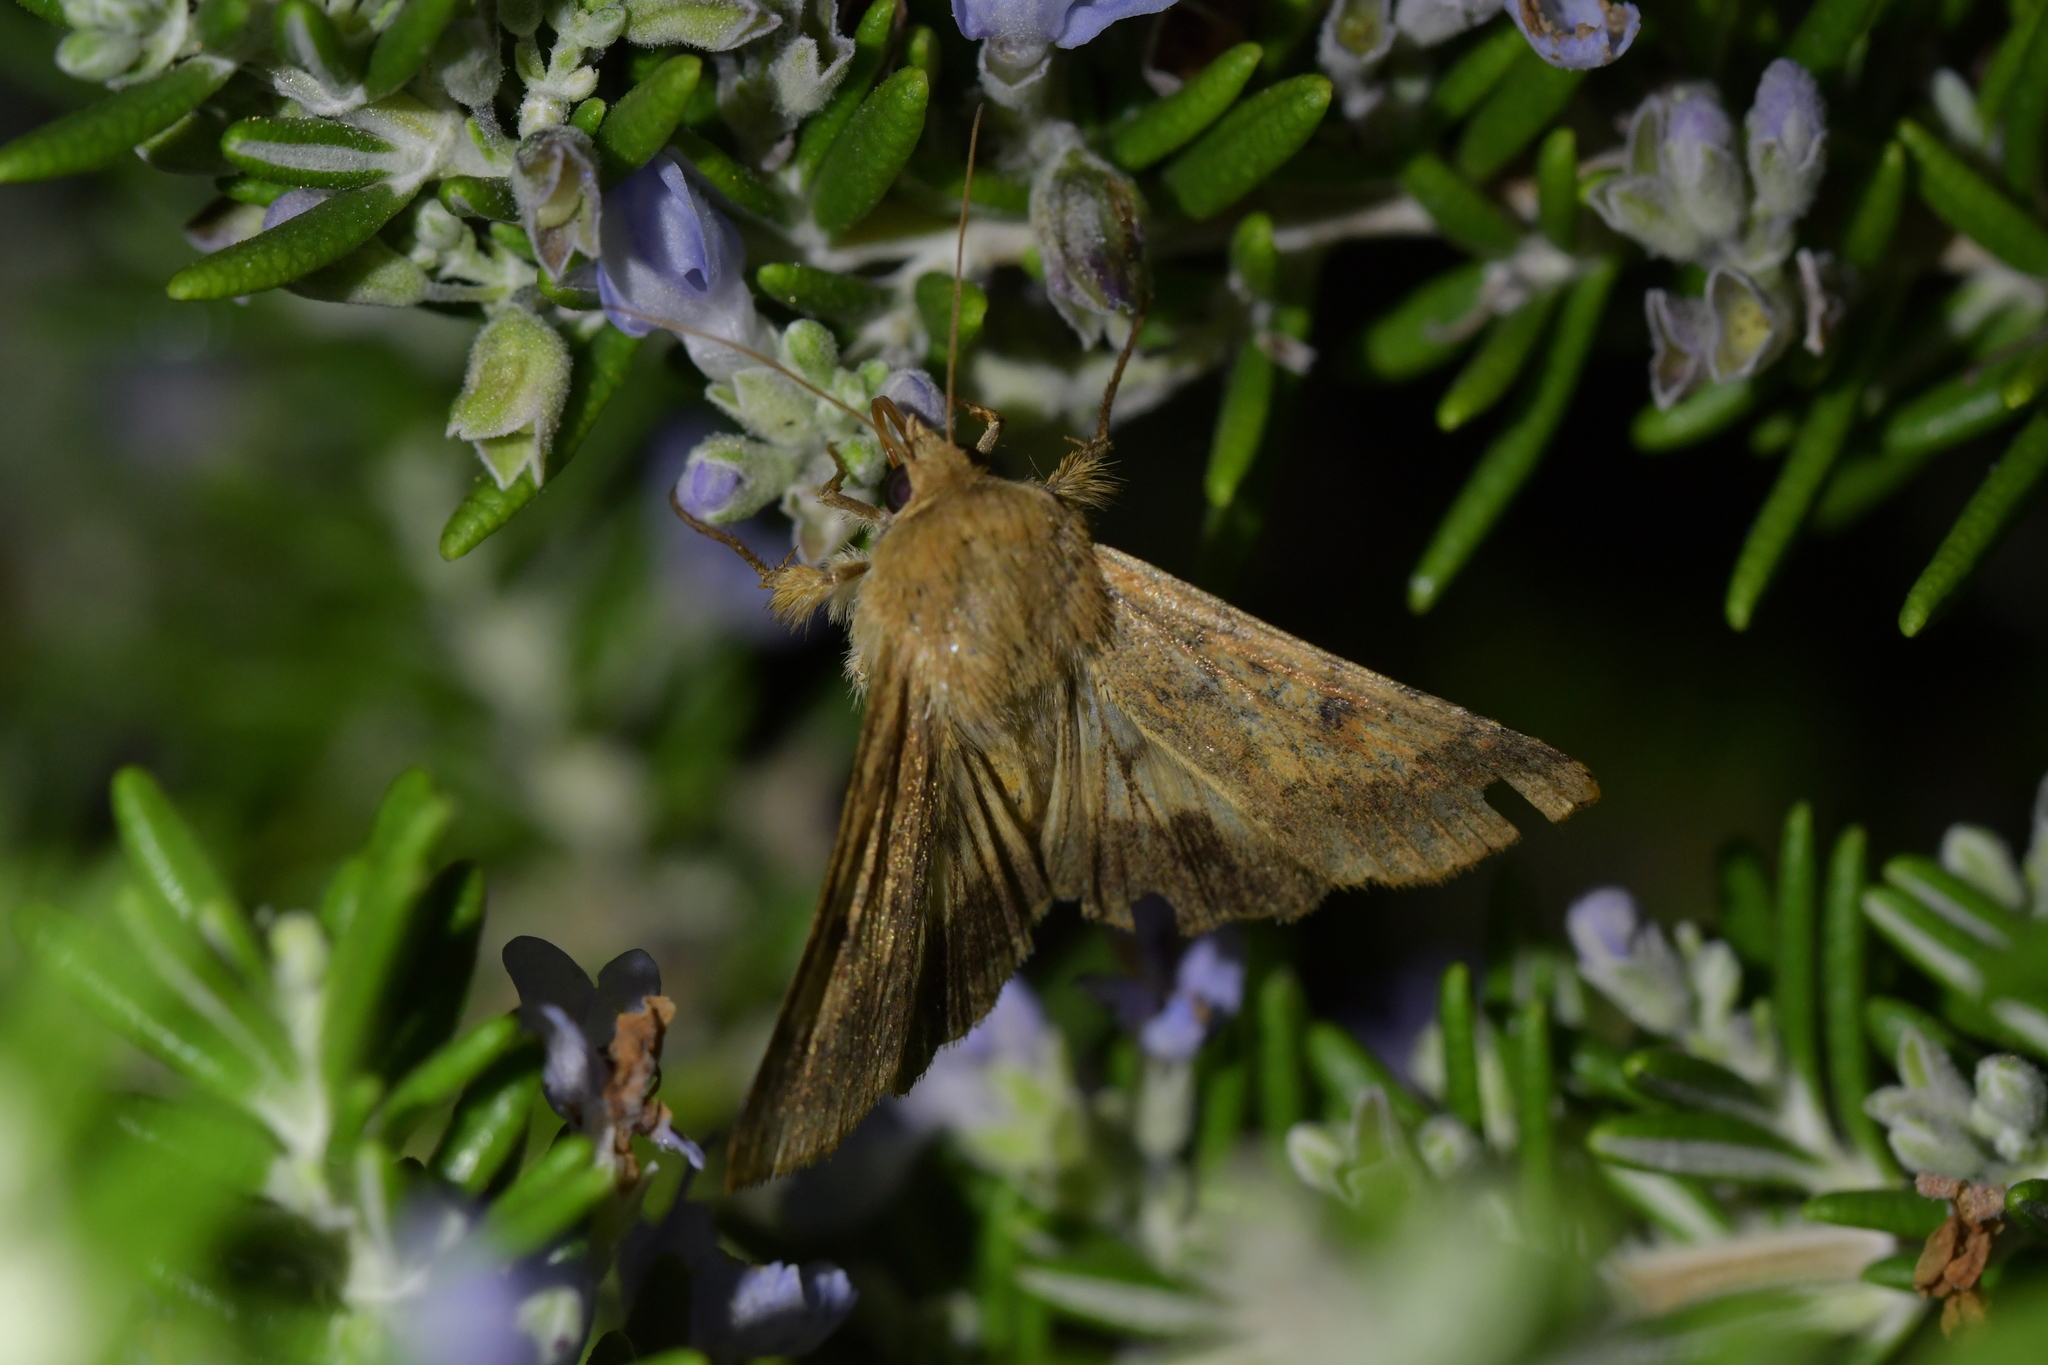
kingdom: Animalia
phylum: Arthropoda
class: Insecta
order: Lepidoptera
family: Noctuidae
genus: Helicoverpa
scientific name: Helicoverpa armigera
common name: Cotton bollworm
